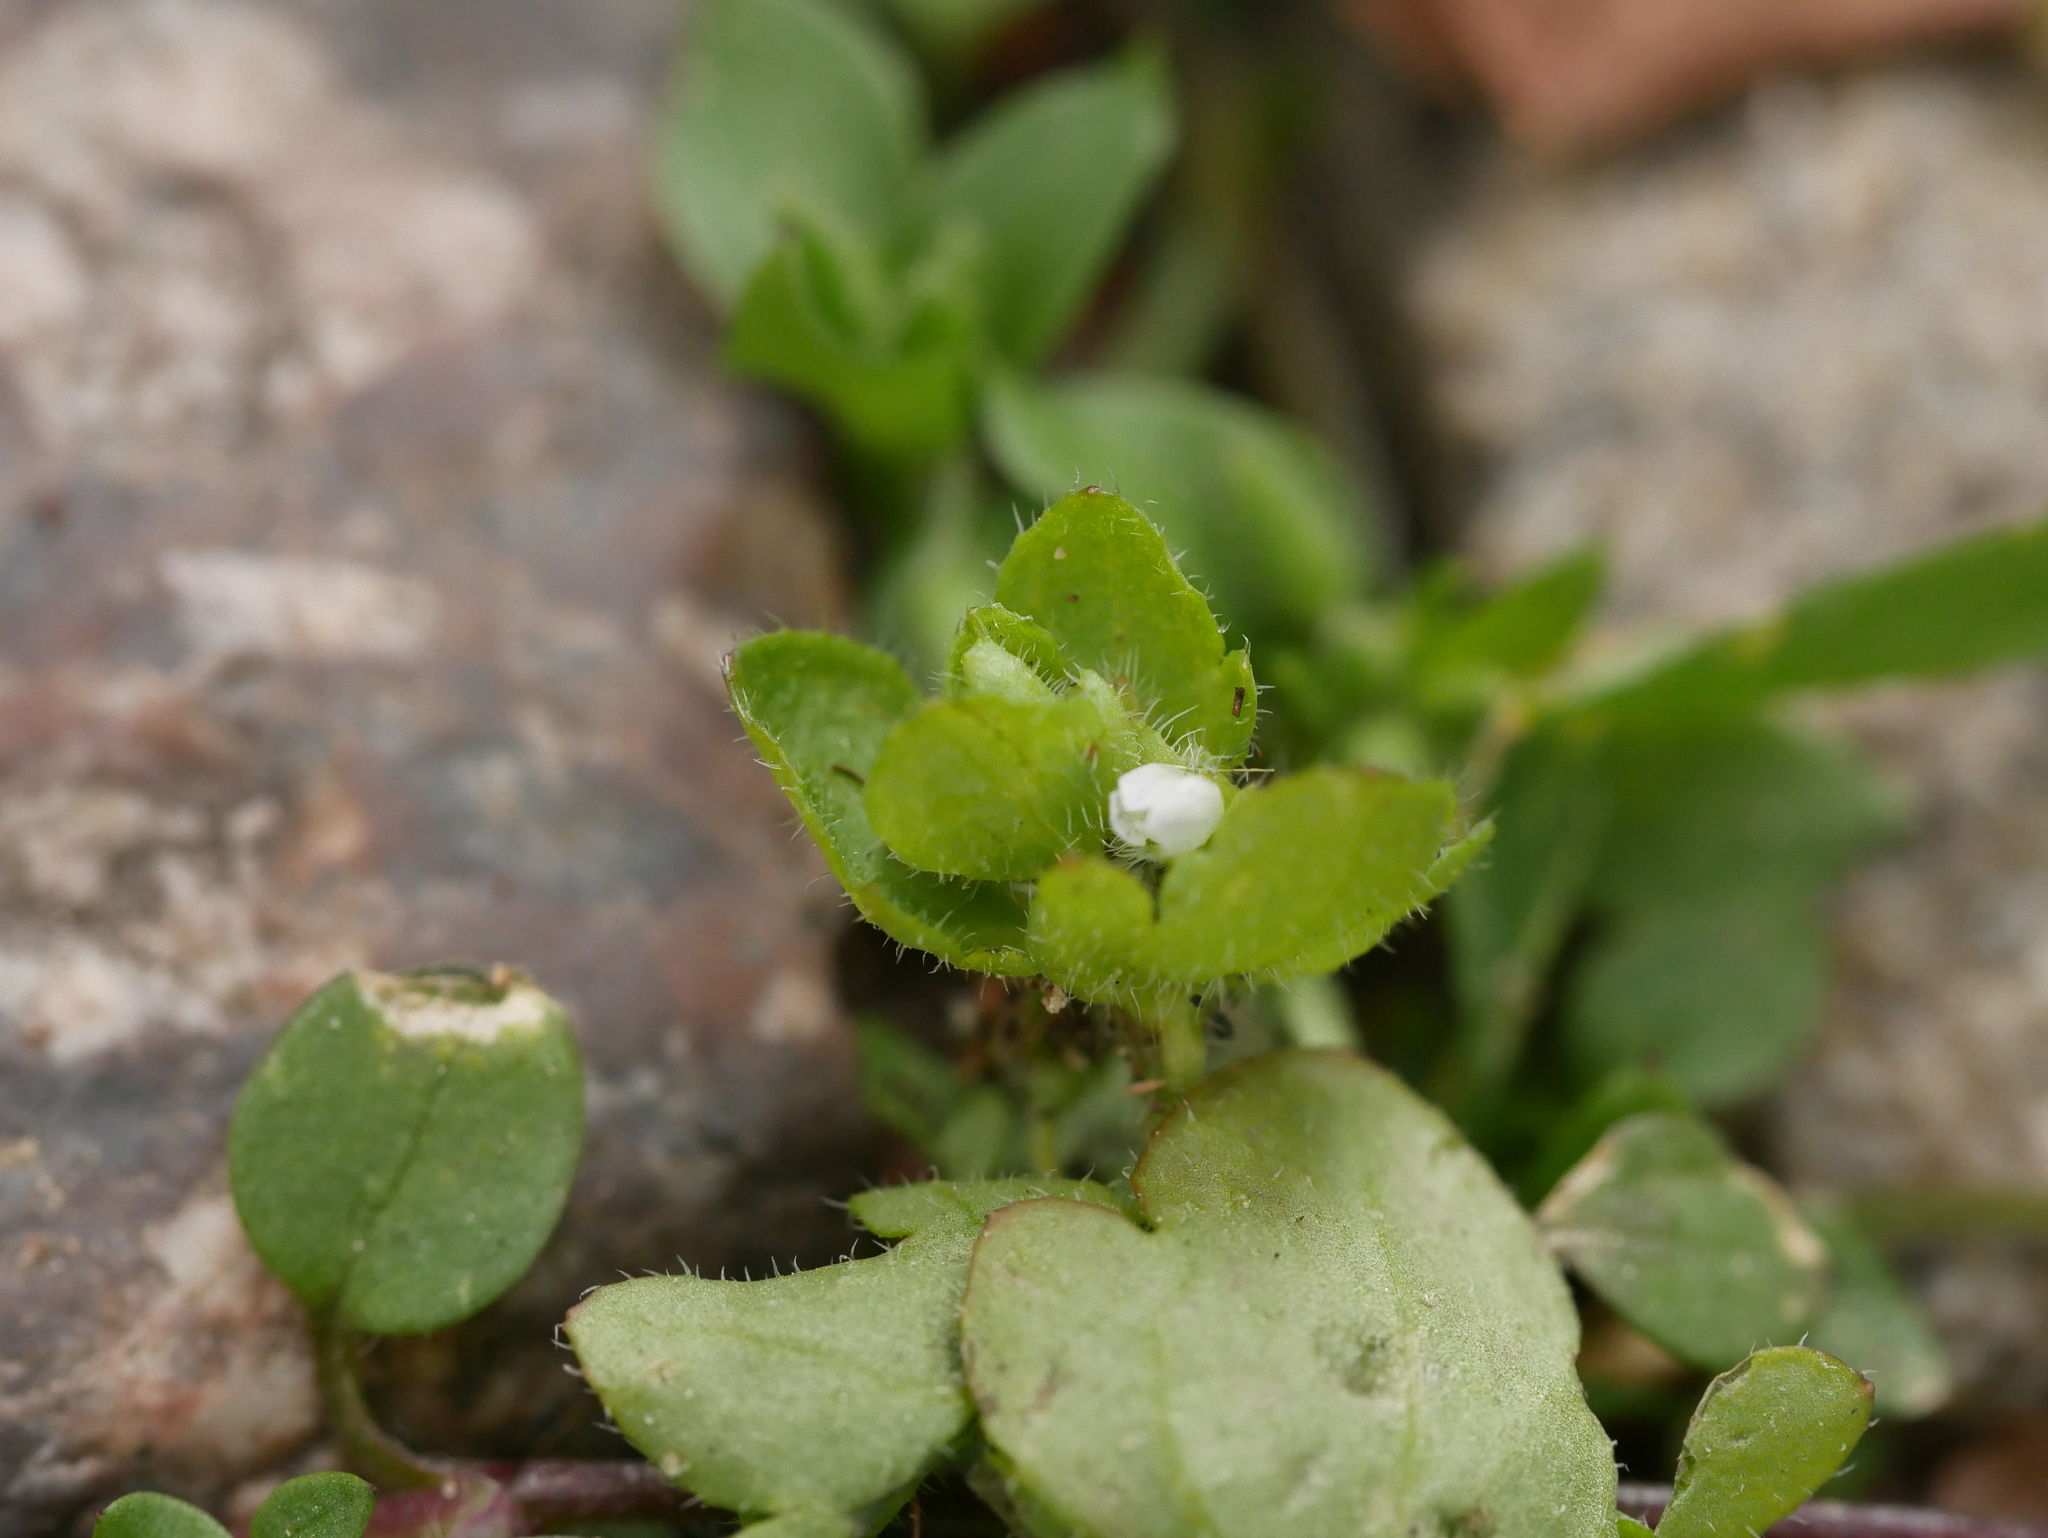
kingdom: Plantae
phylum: Tracheophyta
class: Magnoliopsida
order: Lamiales
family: Plantaginaceae
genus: Veronica
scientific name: Veronica sublobata
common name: False ivy-leaved speedwell
